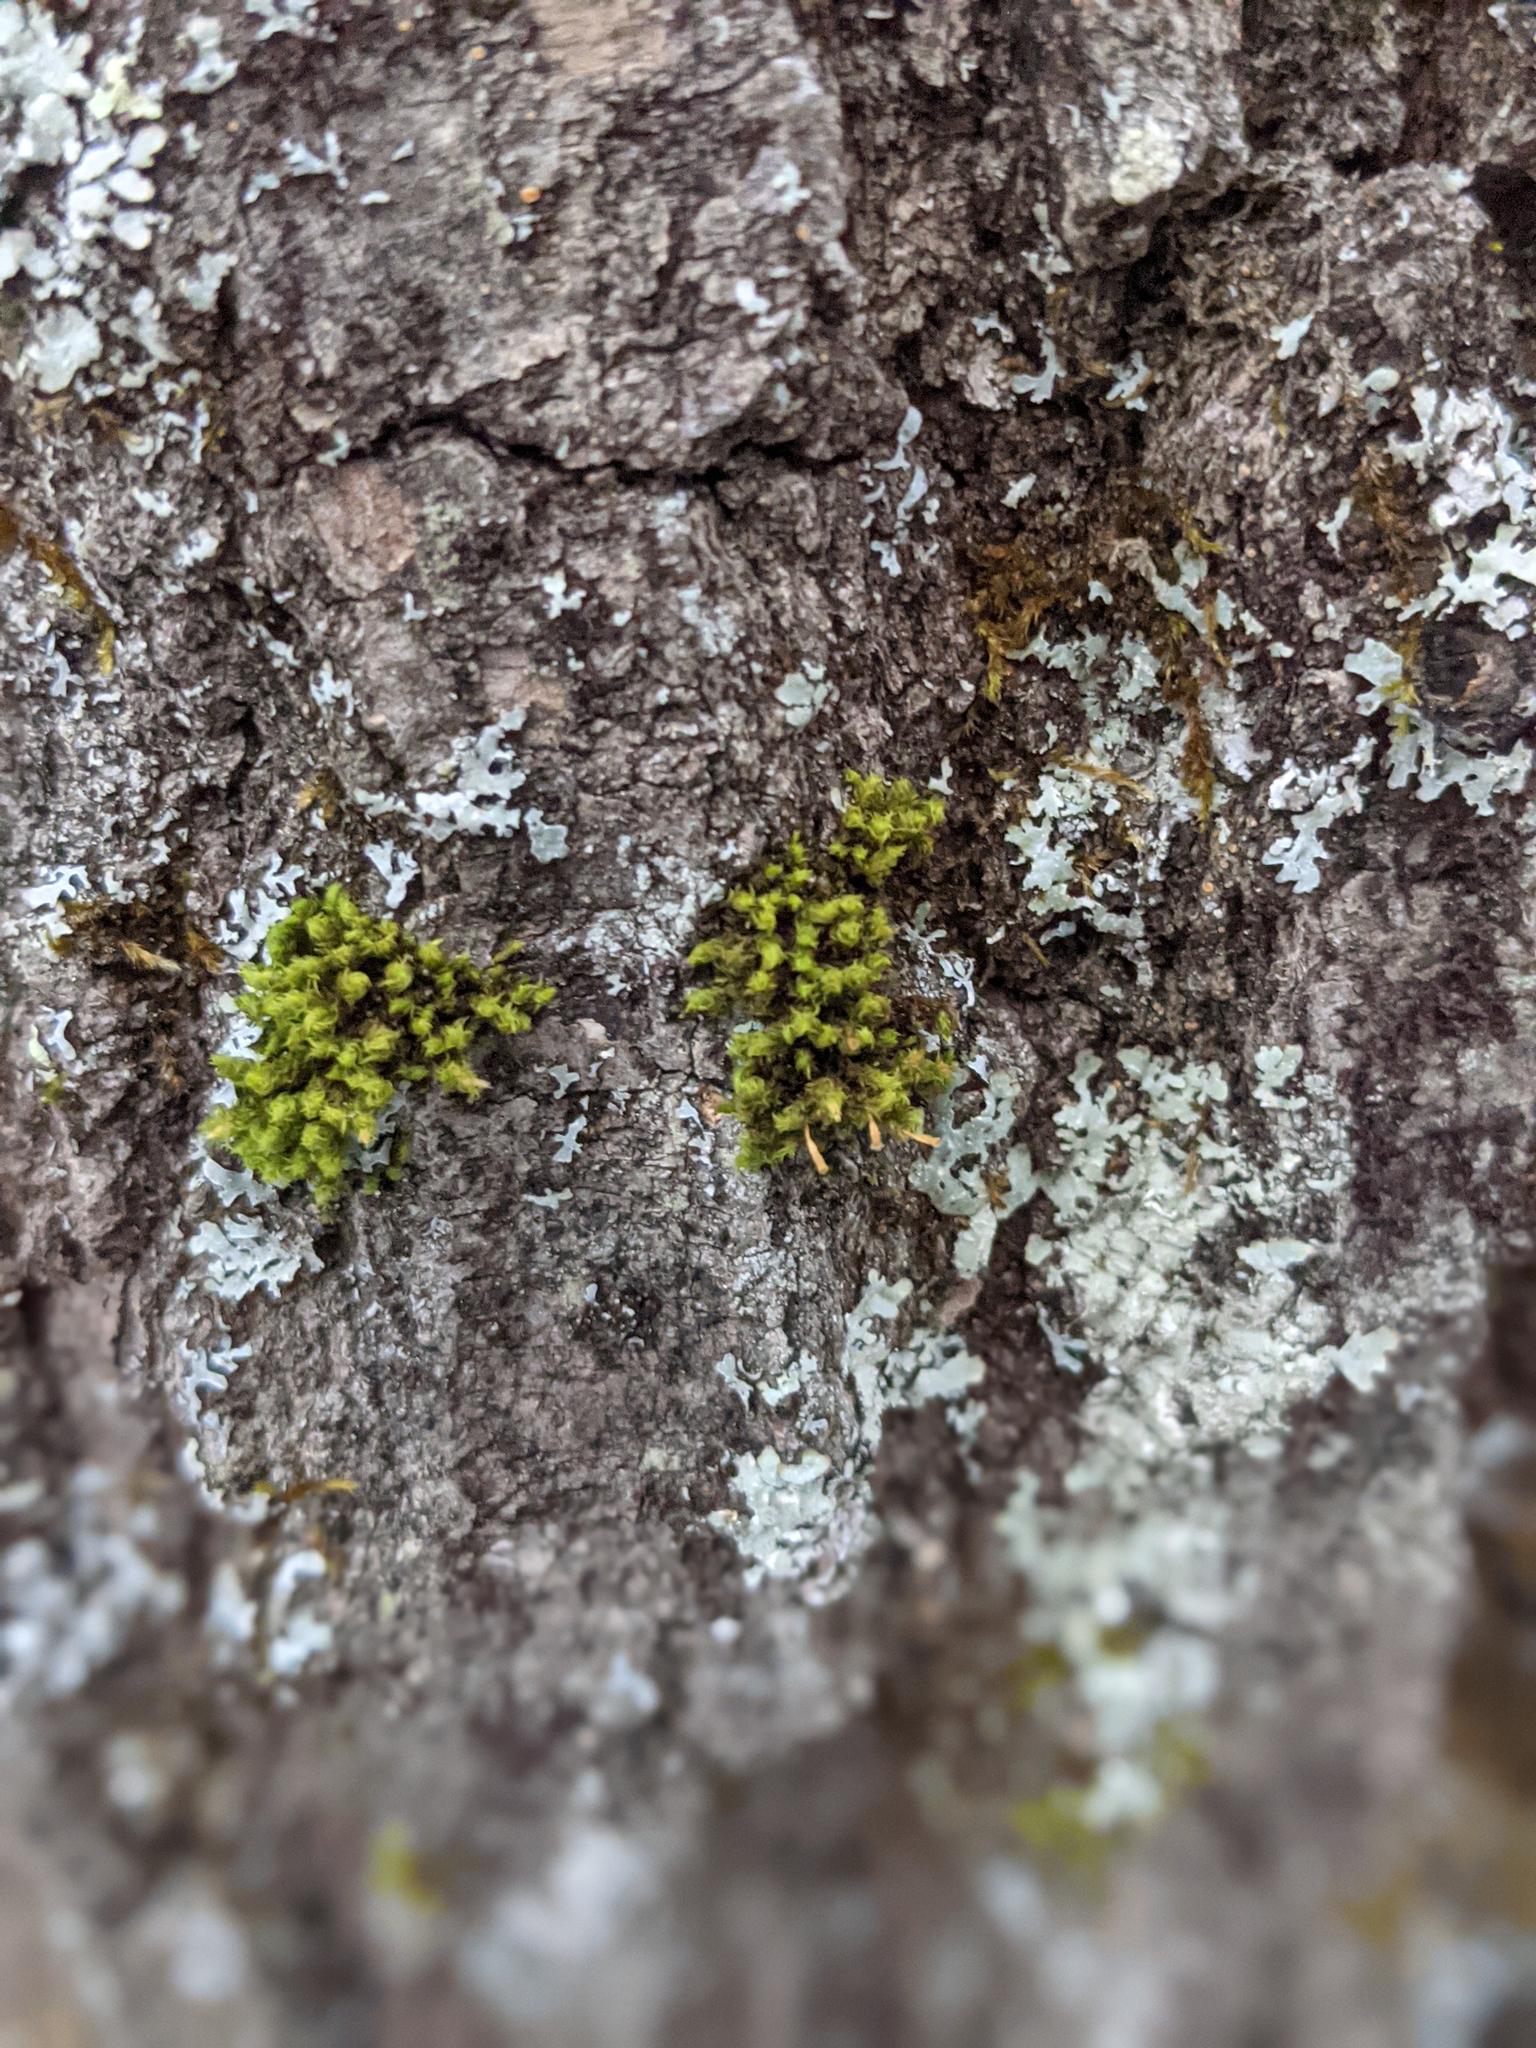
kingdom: Plantae
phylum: Bryophyta
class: Bryopsida
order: Orthotrichales
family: Orthotrichaceae
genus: Ulota
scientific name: Ulota crispa
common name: Crisped pincushion moss
